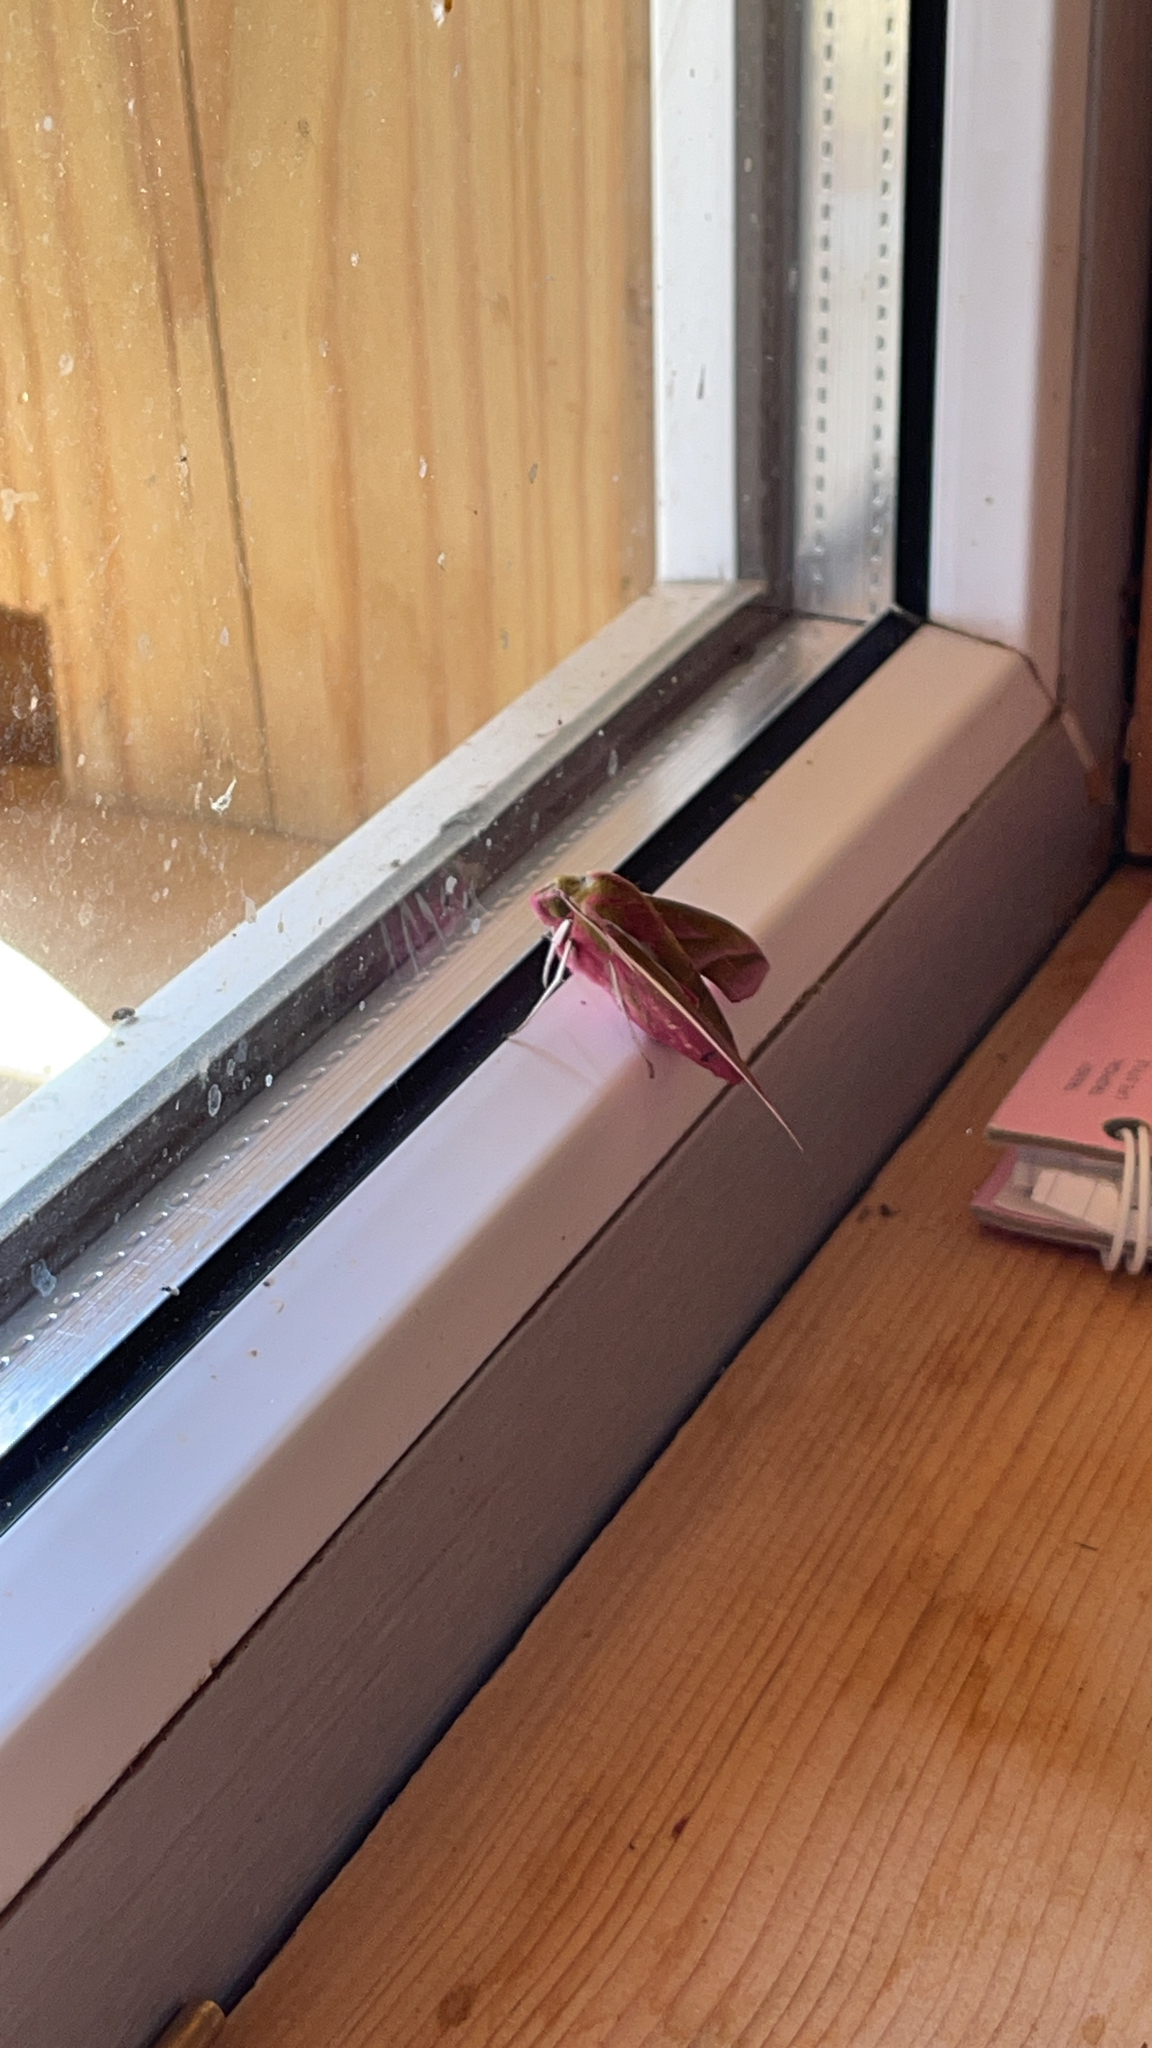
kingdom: Animalia
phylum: Arthropoda
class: Insecta
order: Lepidoptera
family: Sphingidae
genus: Deilephila
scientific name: Deilephila elpenor
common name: Elephant hawk-moth
